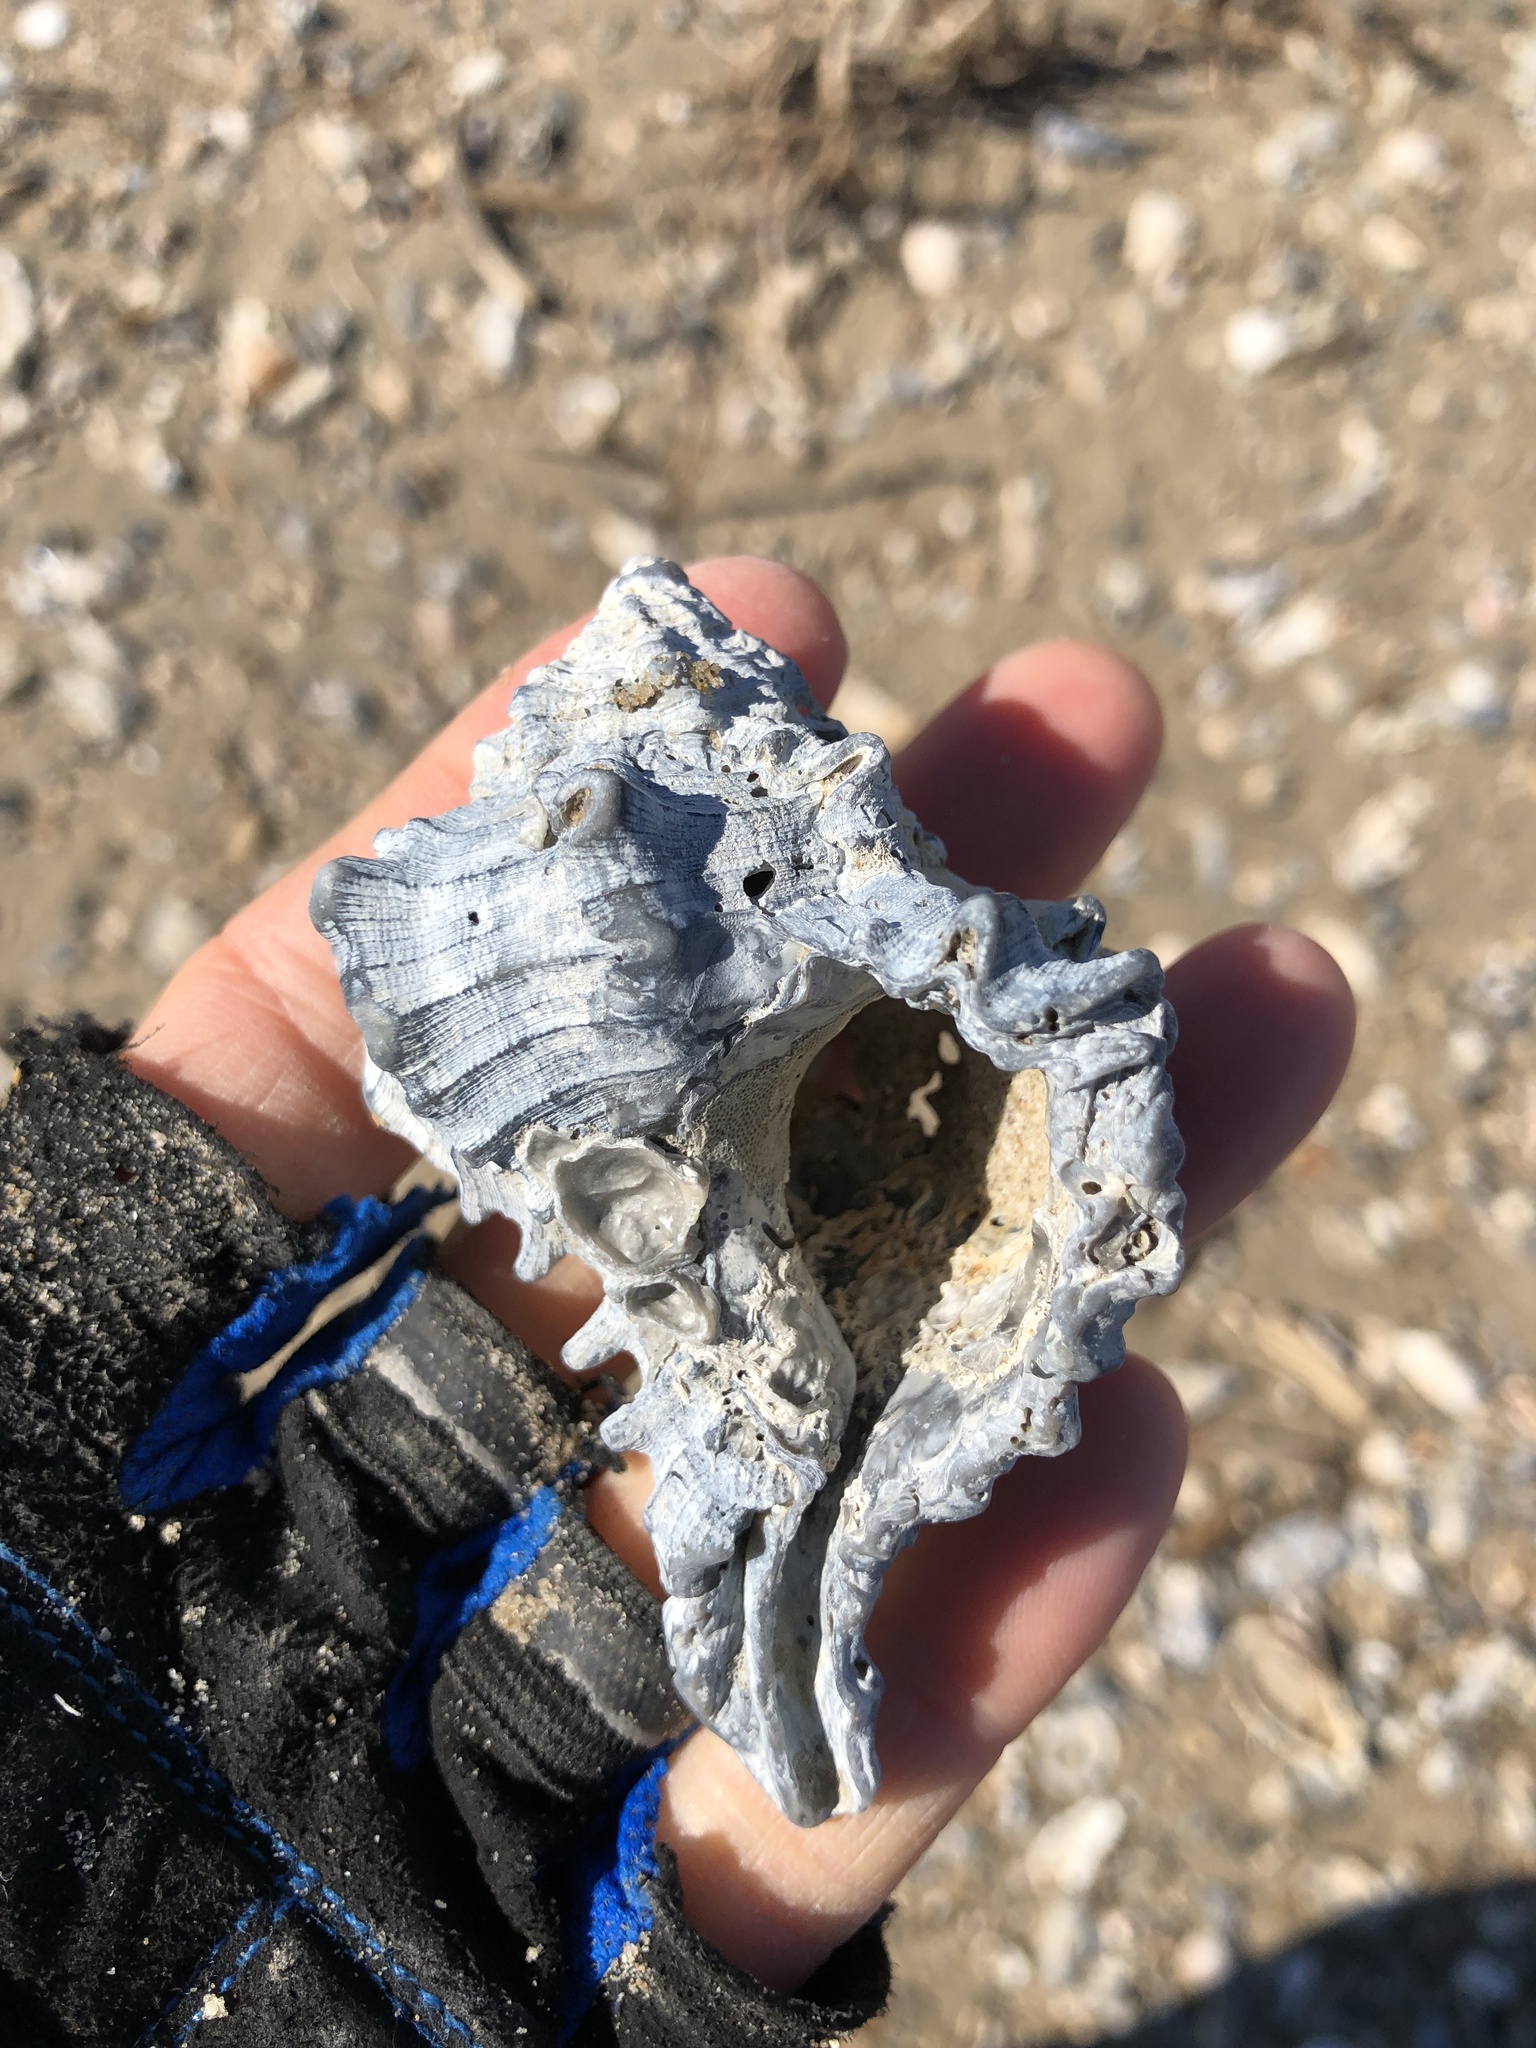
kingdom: Animalia
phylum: Mollusca
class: Gastropoda
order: Neogastropoda
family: Muricidae
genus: Hexaplex
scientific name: Hexaplex fulvescens
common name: Tawny murex
